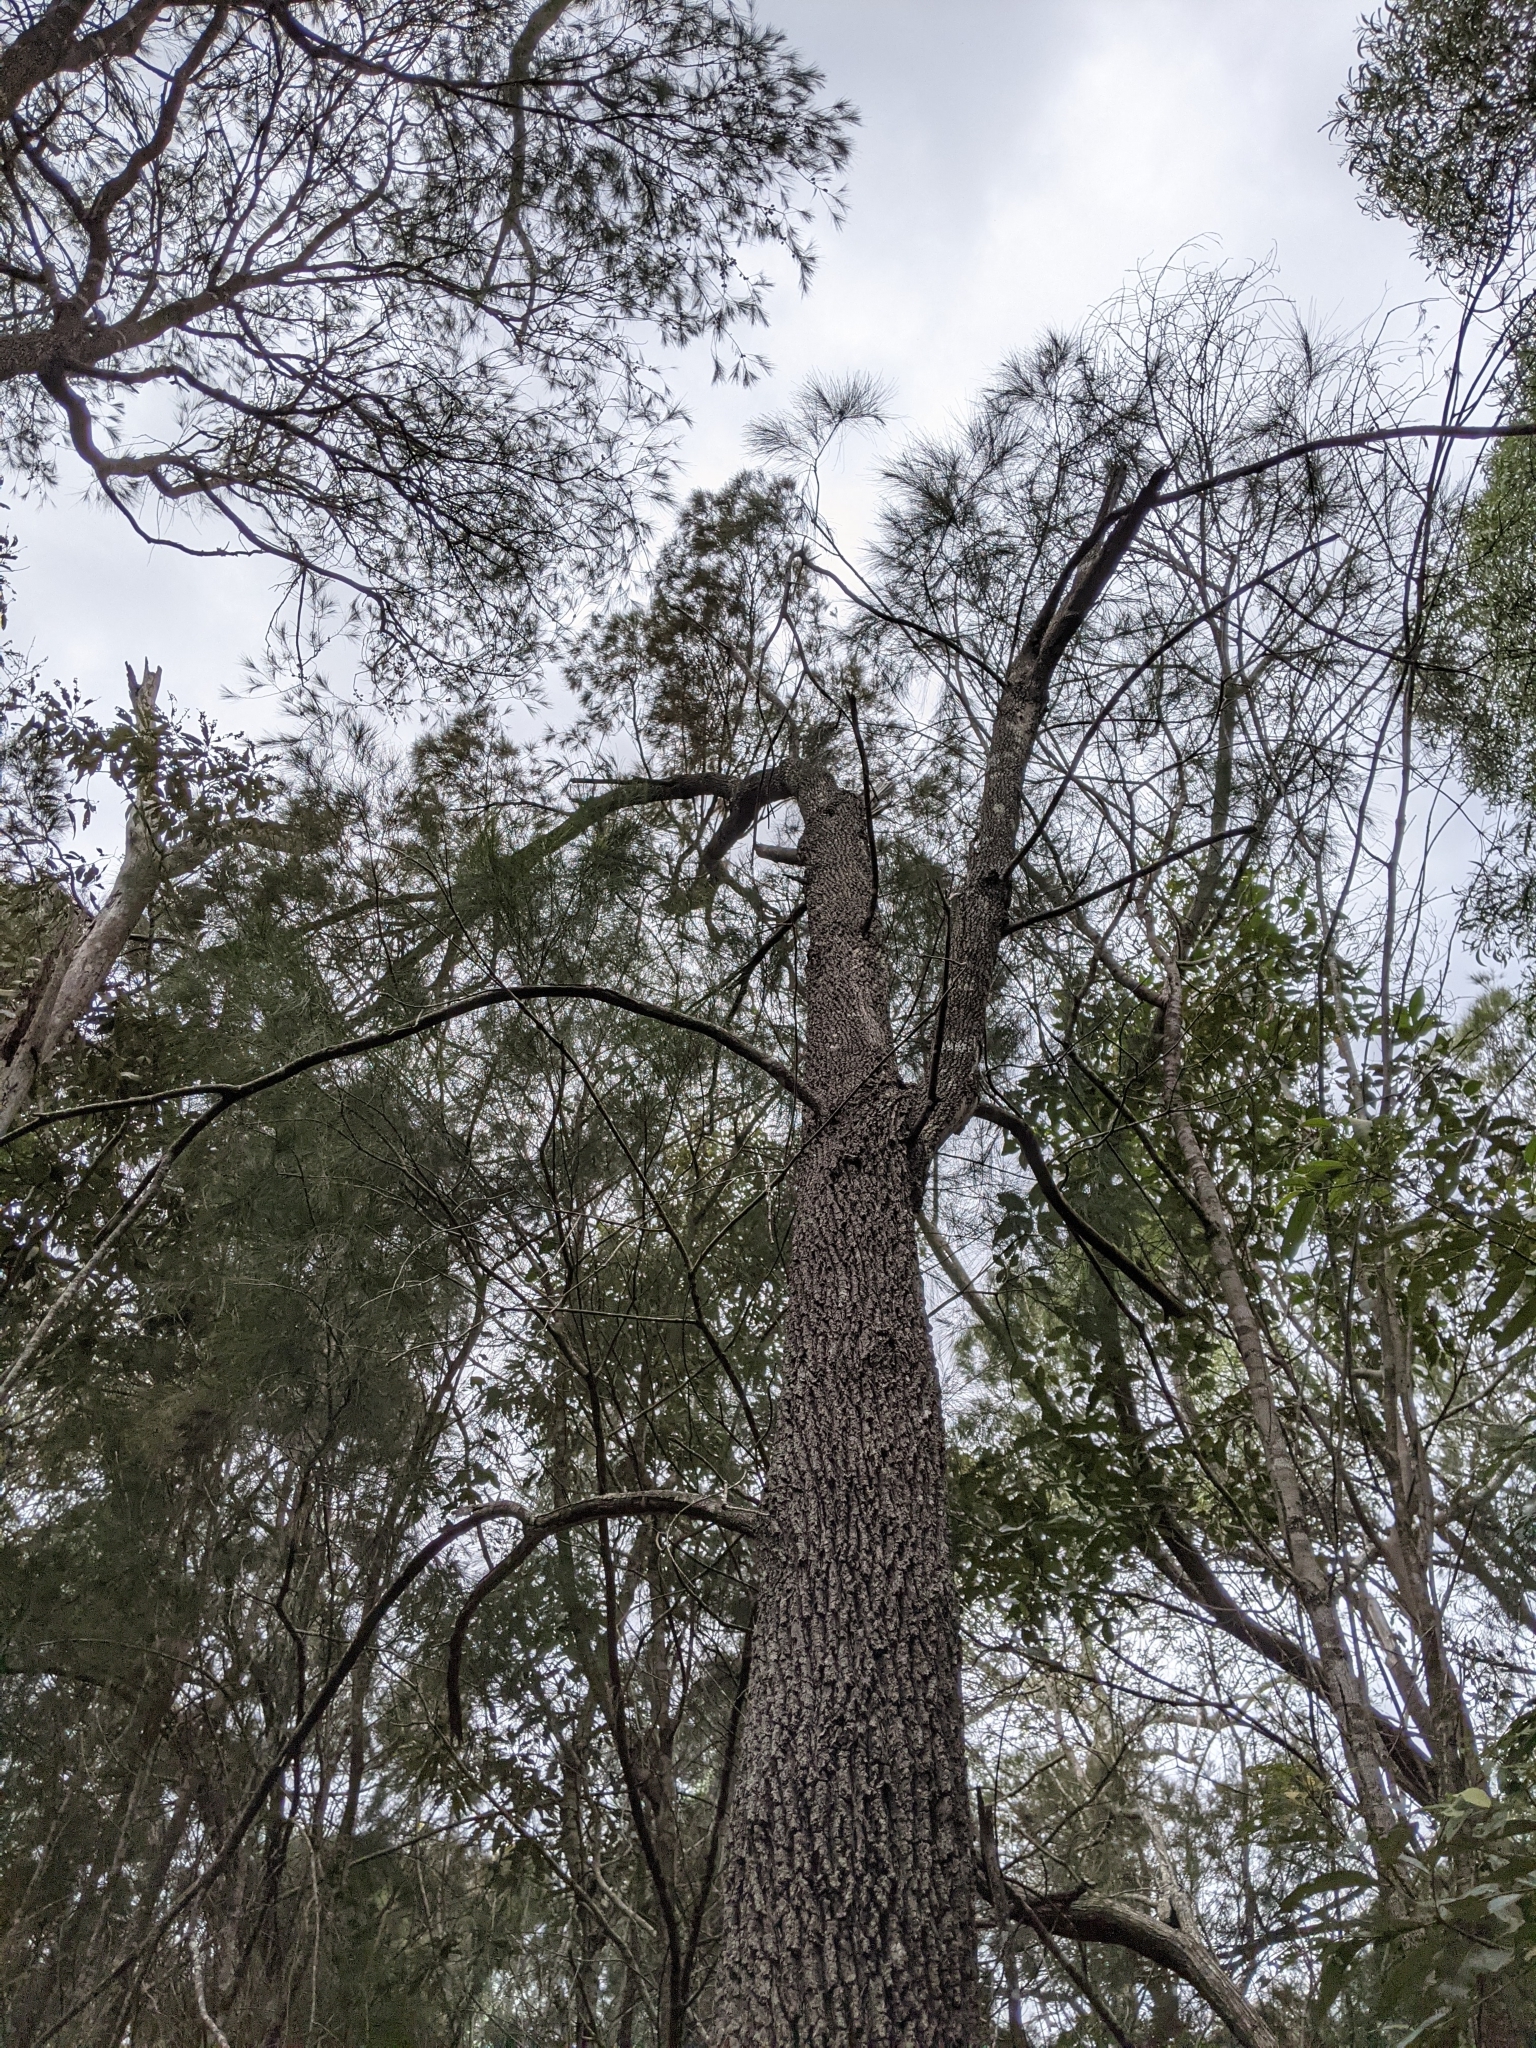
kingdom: Plantae
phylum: Tracheophyta
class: Magnoliopsida
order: Fagales
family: Casuarinaceae
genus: Allocasuarina
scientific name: Allocasuarina littoralis
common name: Black she-oak
